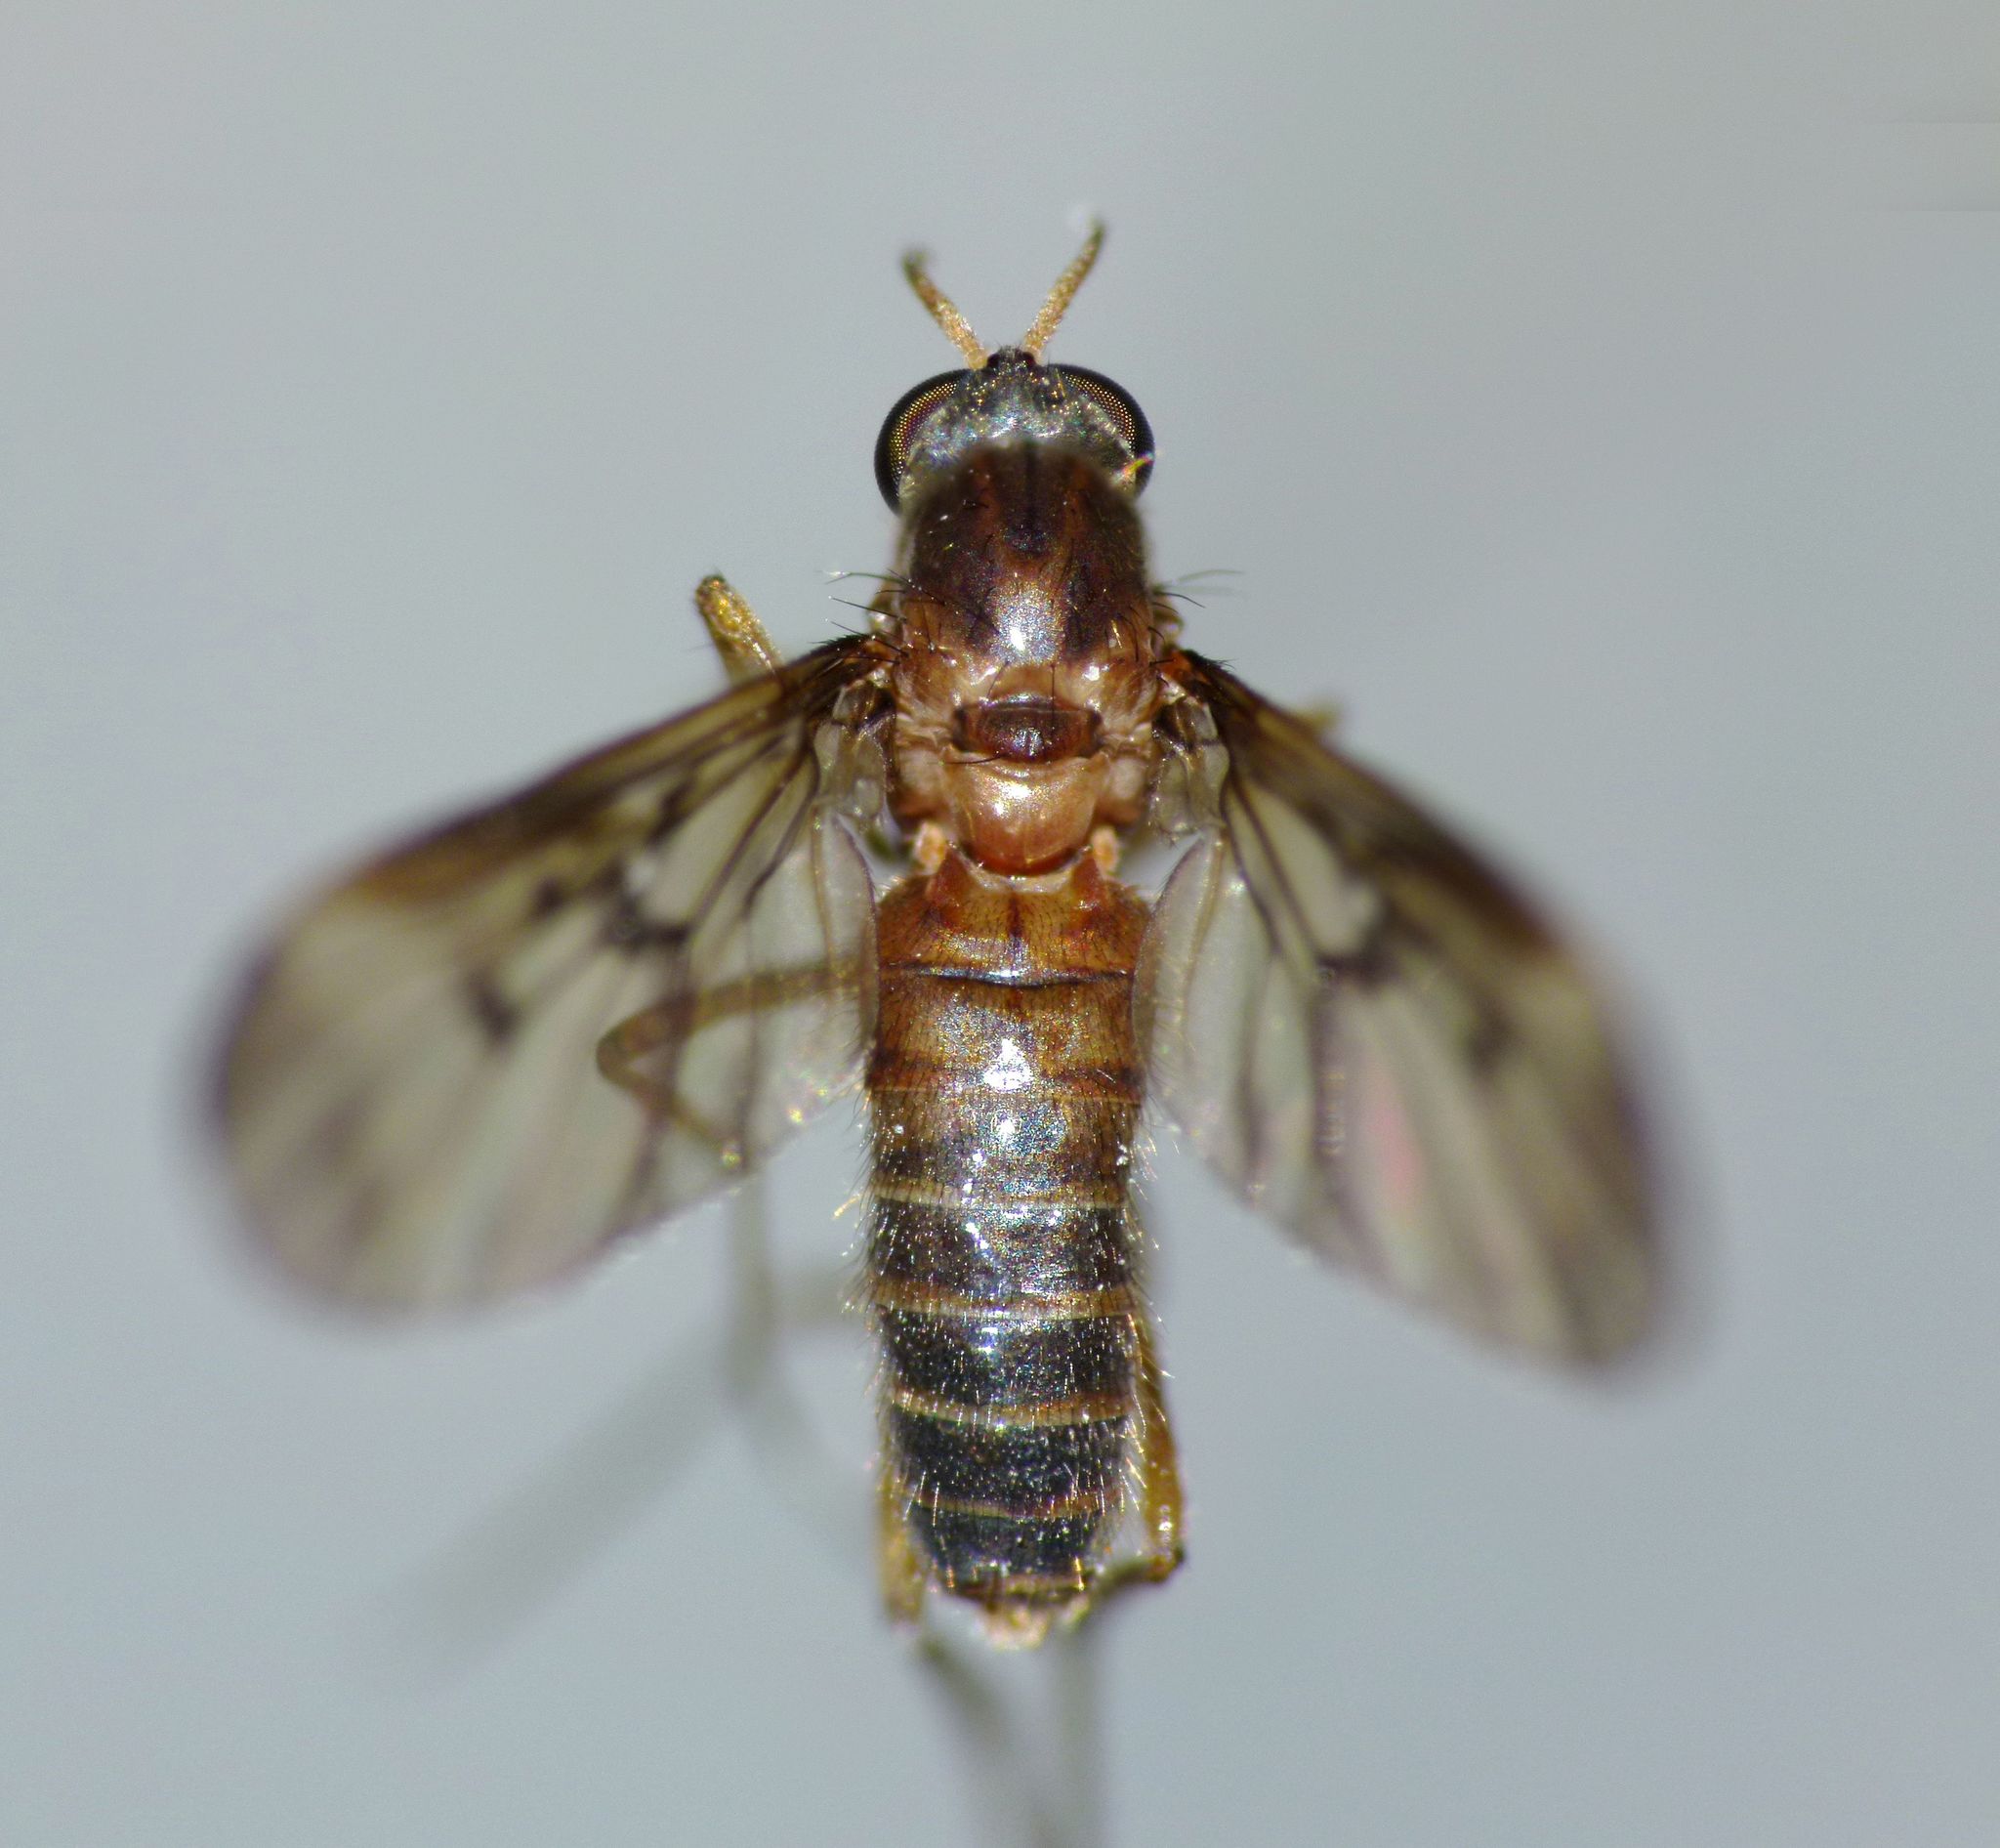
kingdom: Animalia
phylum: Arthropoda
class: Insecta
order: Diptera
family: Anisopodidae
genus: Sylvicola
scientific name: Sylvicola neozelandicus
